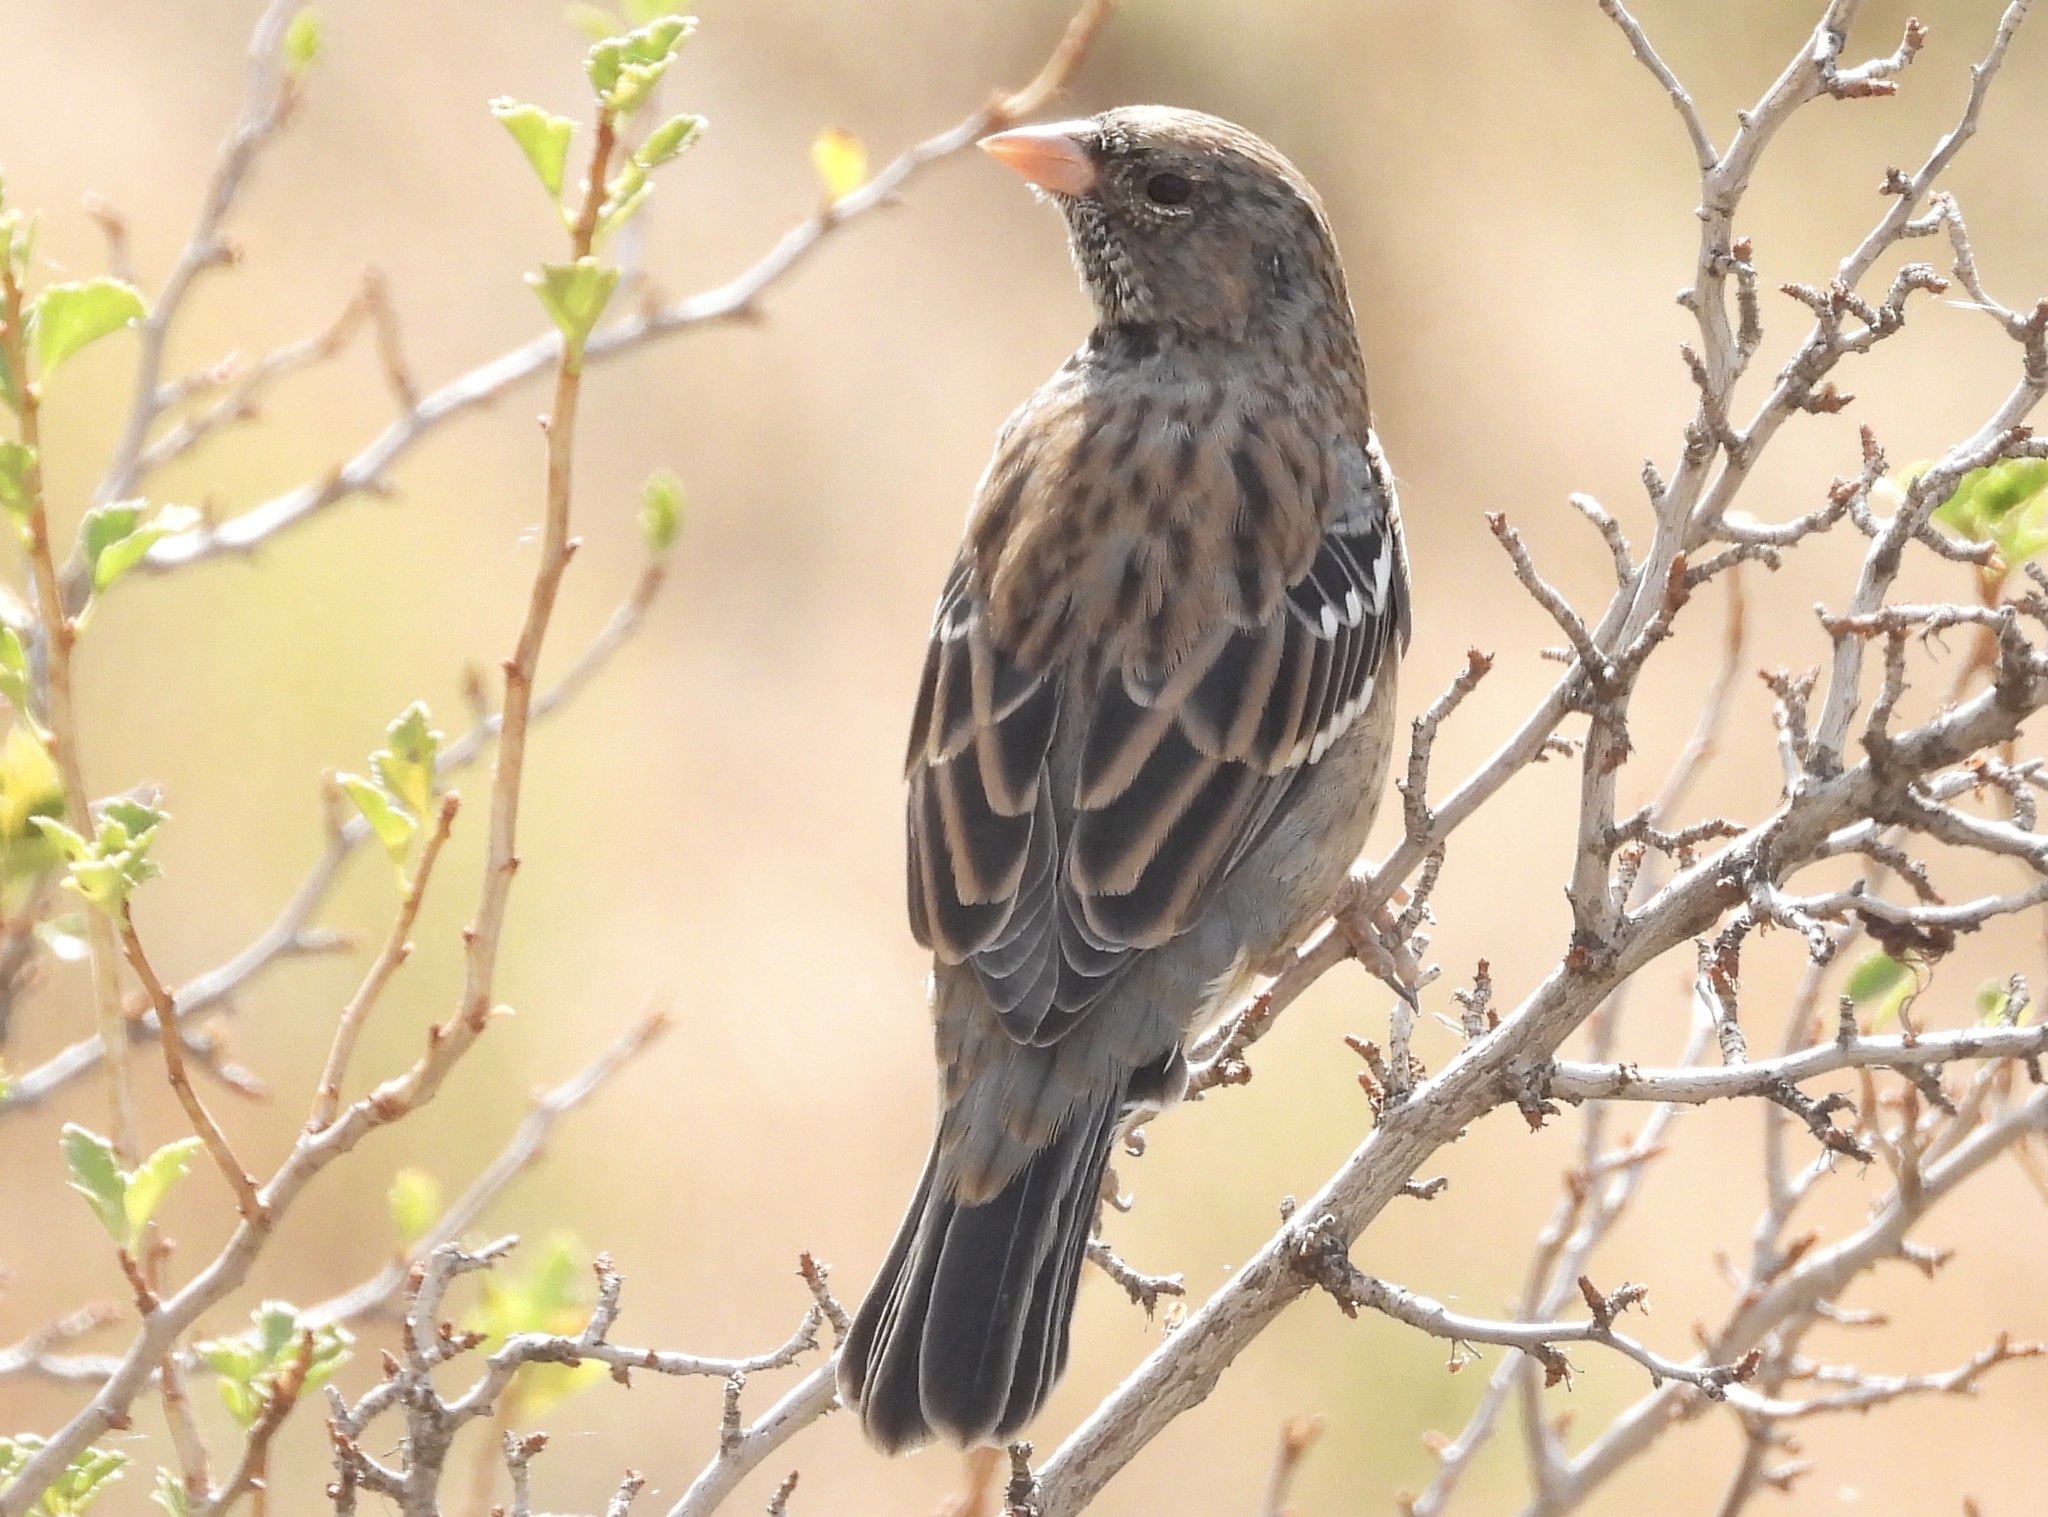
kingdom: Animalia
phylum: Chordata
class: Aves
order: Passeriformes
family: Thraupidae
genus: Rhopospina
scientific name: Rhopospina fruticeti
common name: Mourning sierra finch
